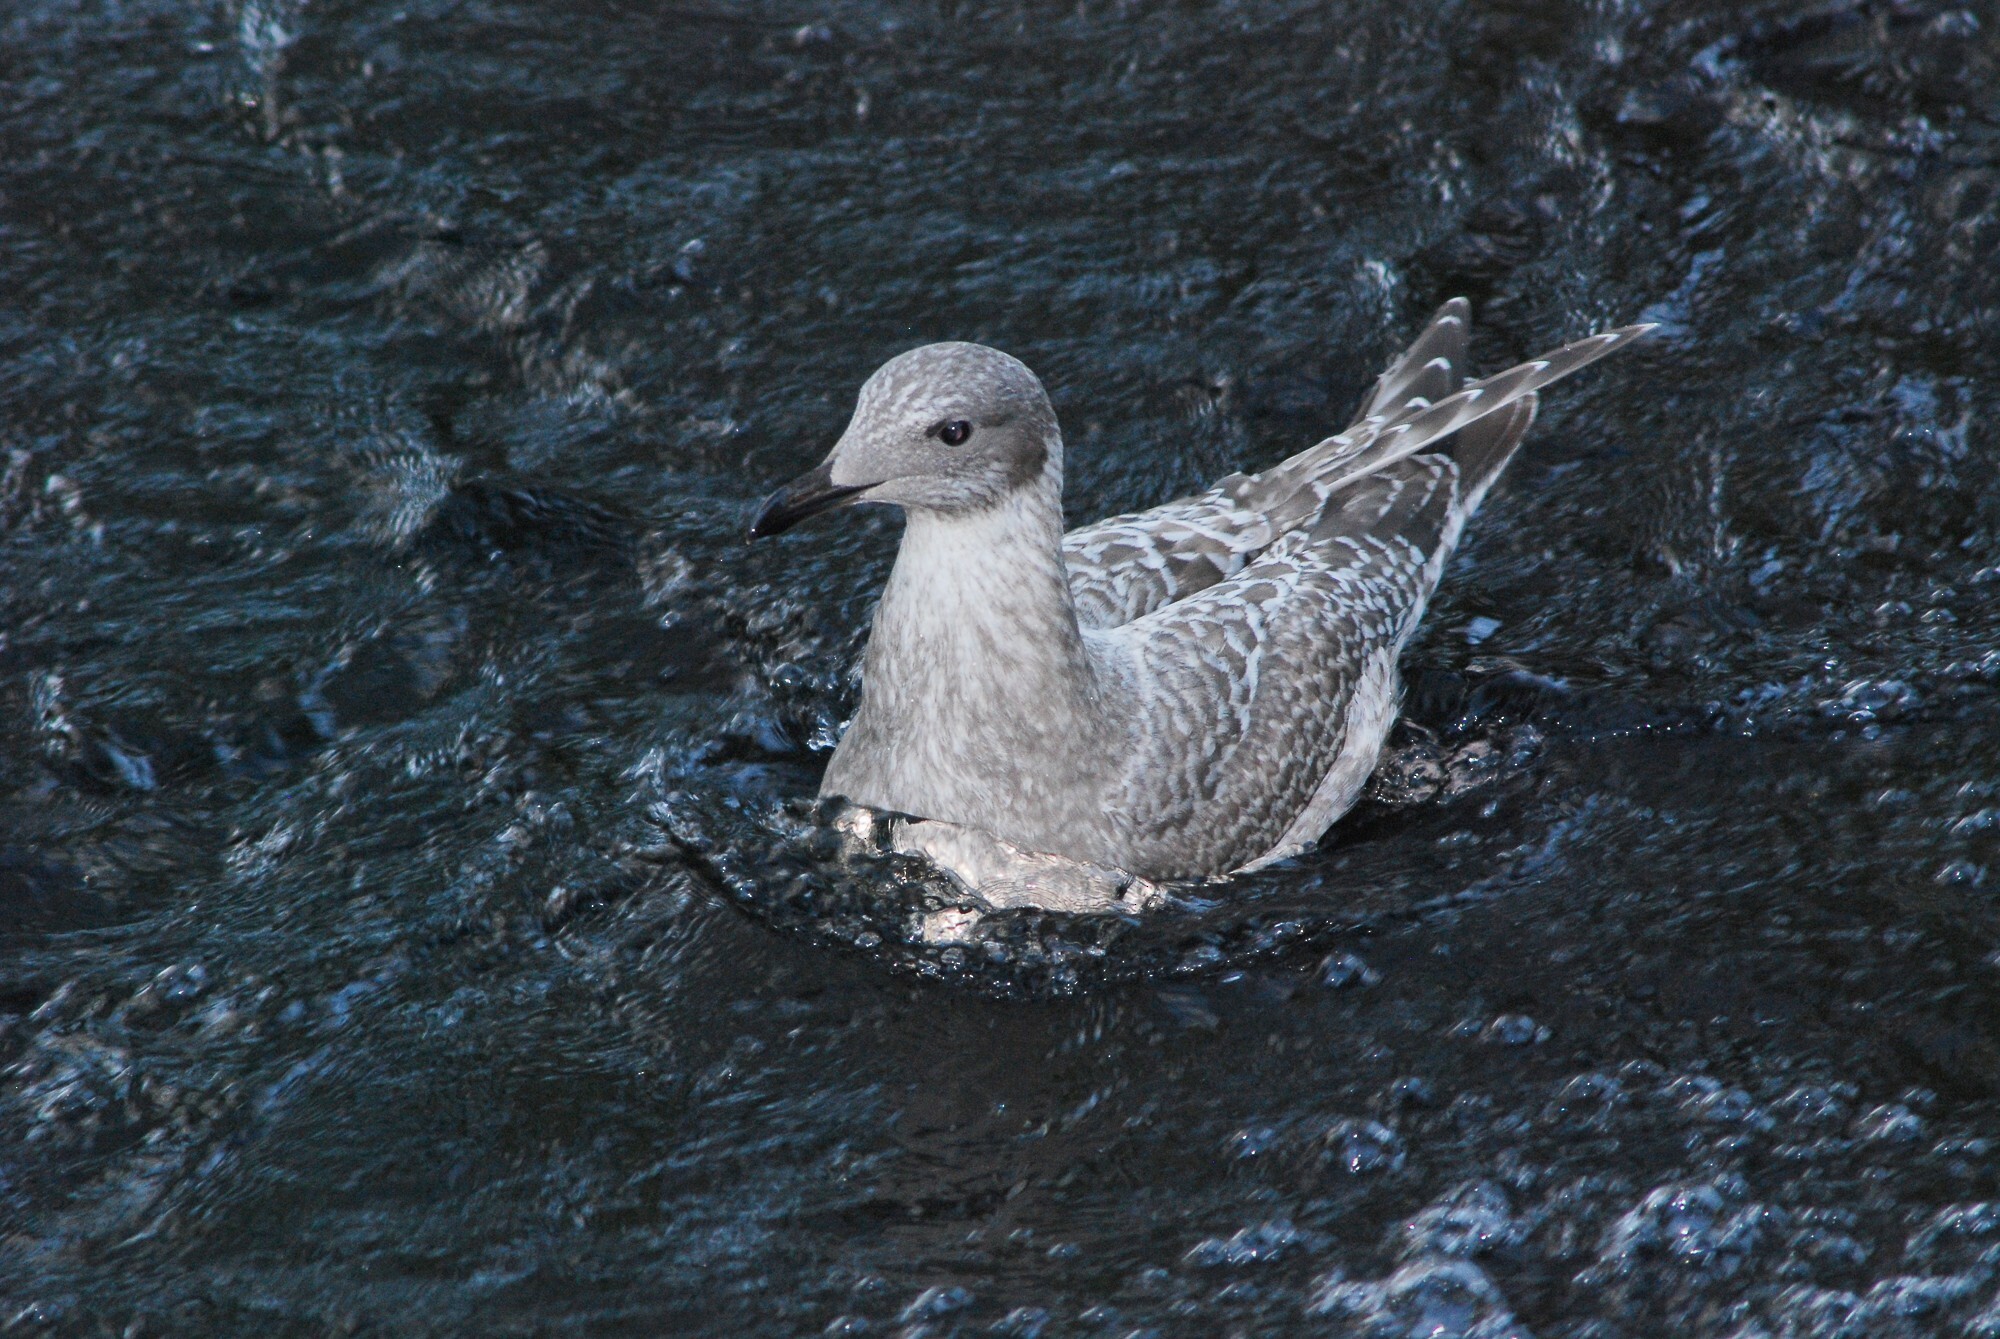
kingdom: Animalia
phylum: Chordata
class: Aves
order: Charadriiformes
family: Laridae
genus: Larus
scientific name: Larus glaucoides
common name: Iceland gull
